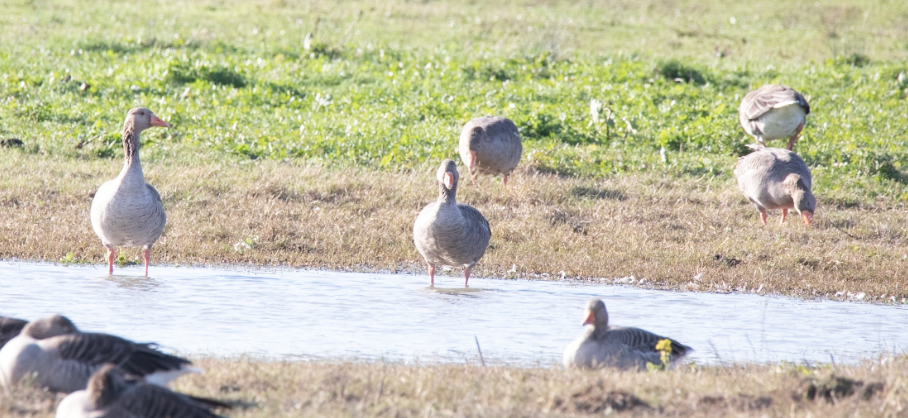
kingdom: Animalia
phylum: Chordata
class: Aves
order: Anseriformes
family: Anatidae
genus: Anser
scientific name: Anser anser
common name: Greylag goose
